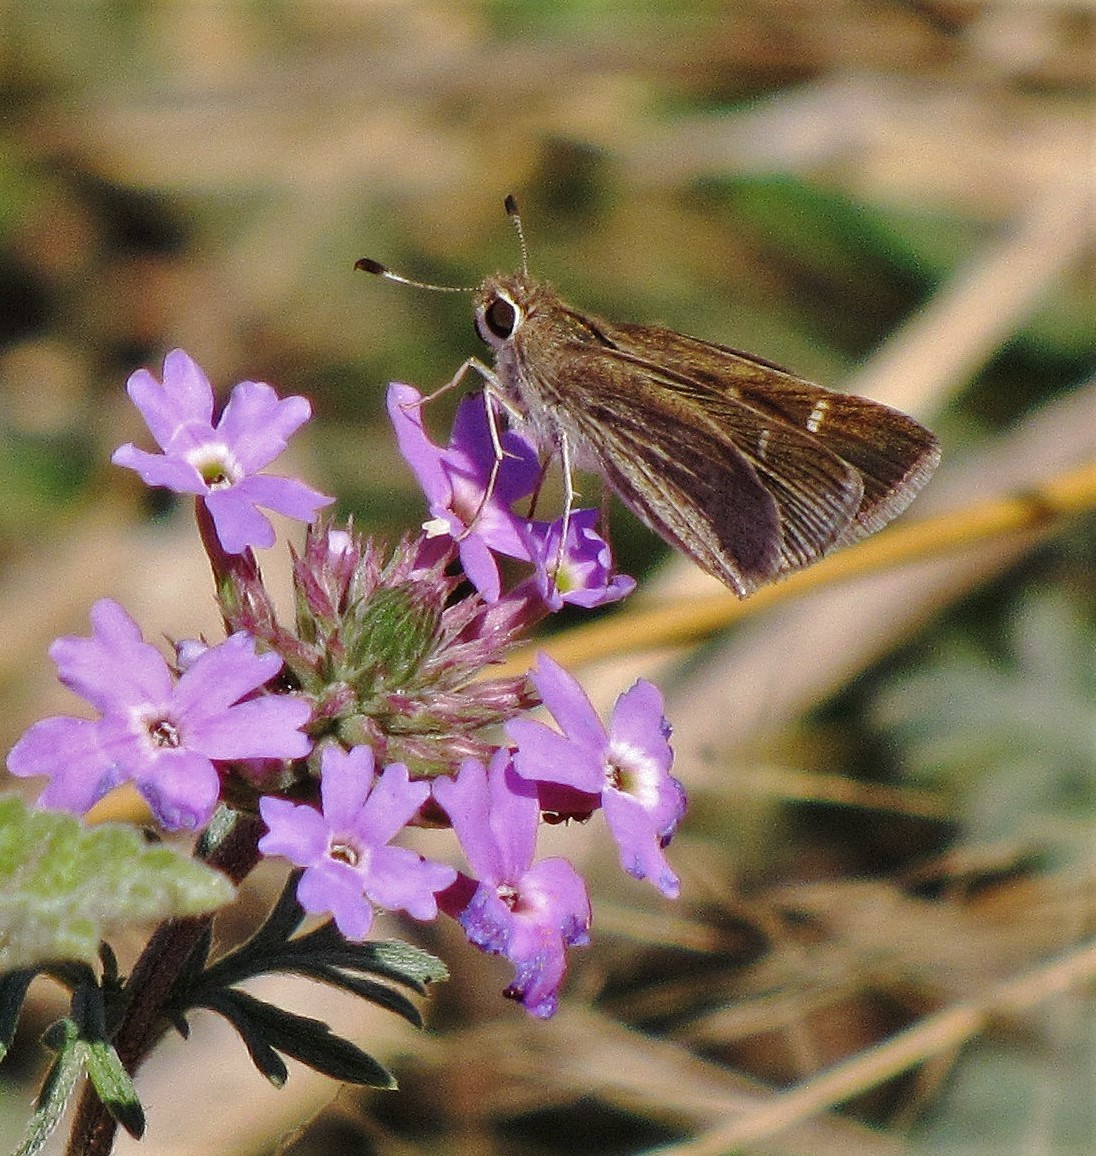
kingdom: Animalia
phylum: Arthropoda
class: Insecta
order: Lepidoptera
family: Hesperiidae
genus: Lerodea
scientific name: Lerodea eufala
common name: Eufala skipper
